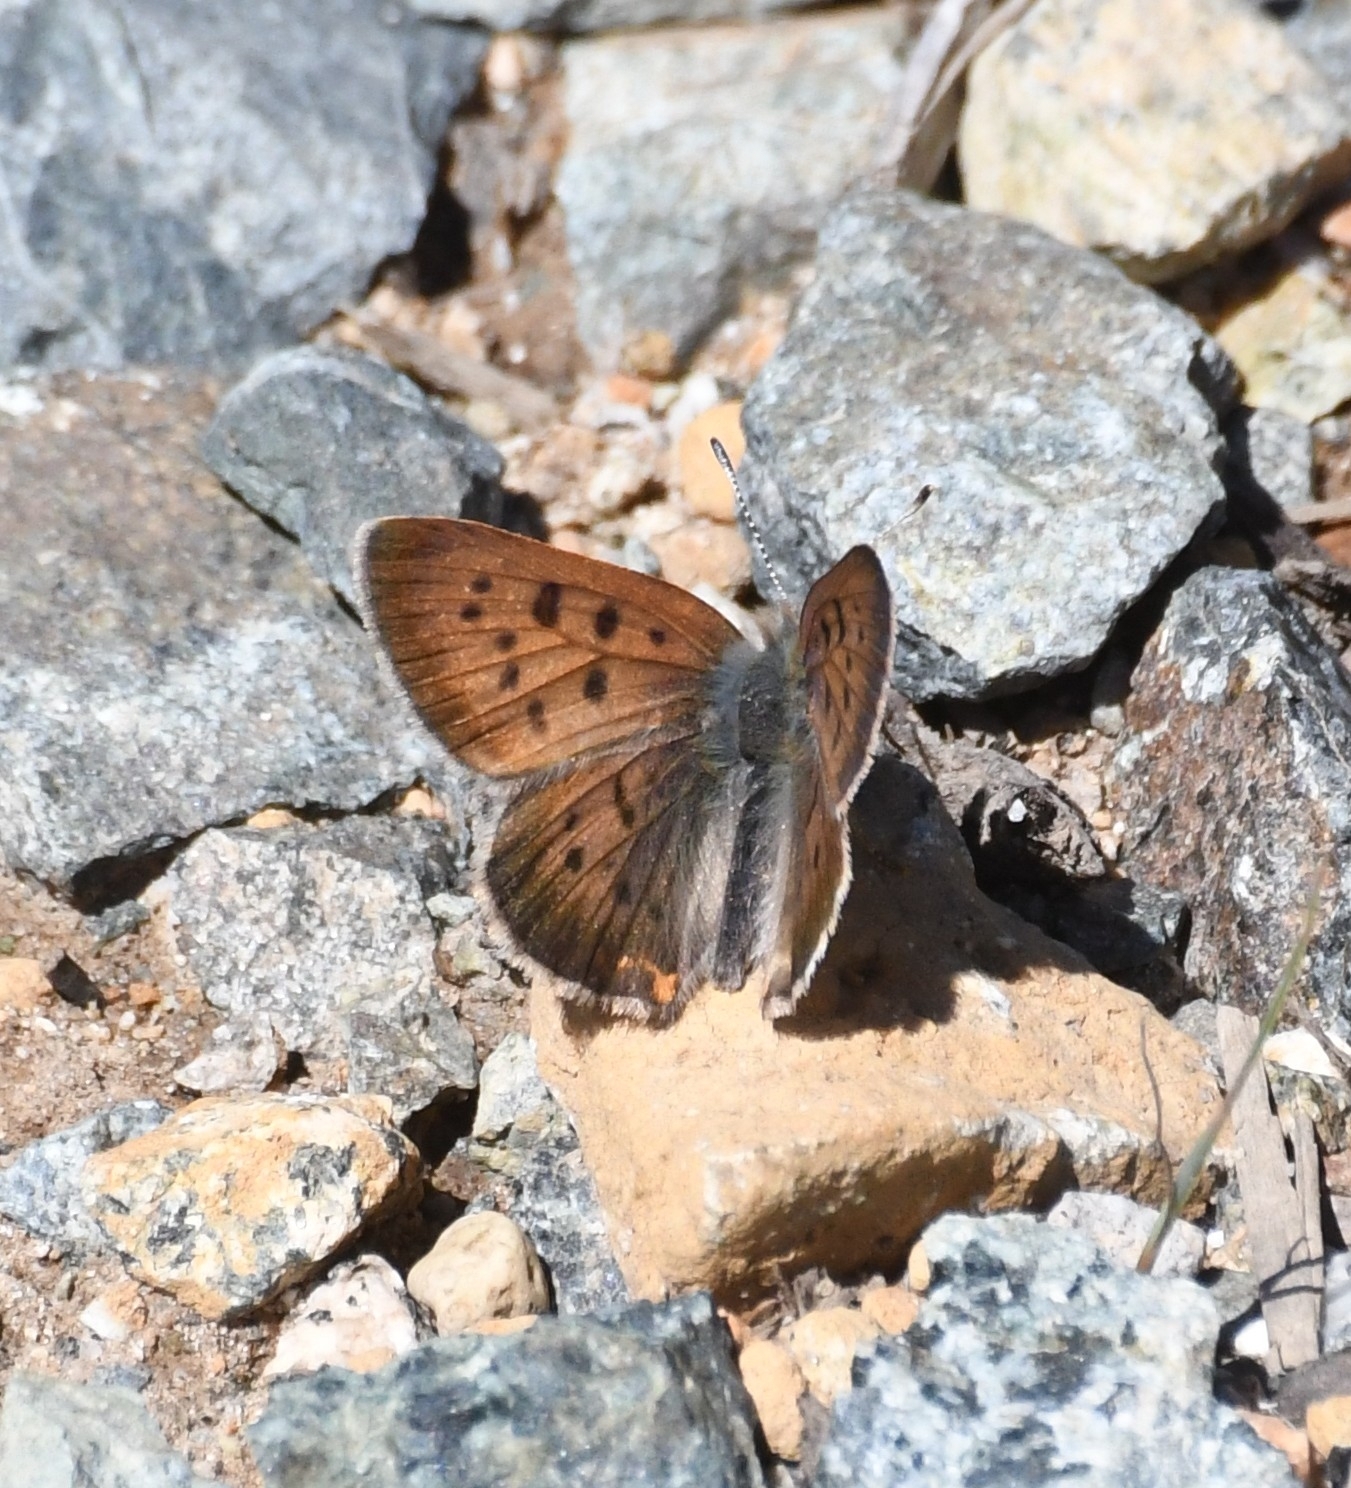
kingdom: Animalia
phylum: Arthropoda
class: Insecta
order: Lepidoptera
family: Lycaenidae
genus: Tharsalea
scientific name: Tharsalea helloides
